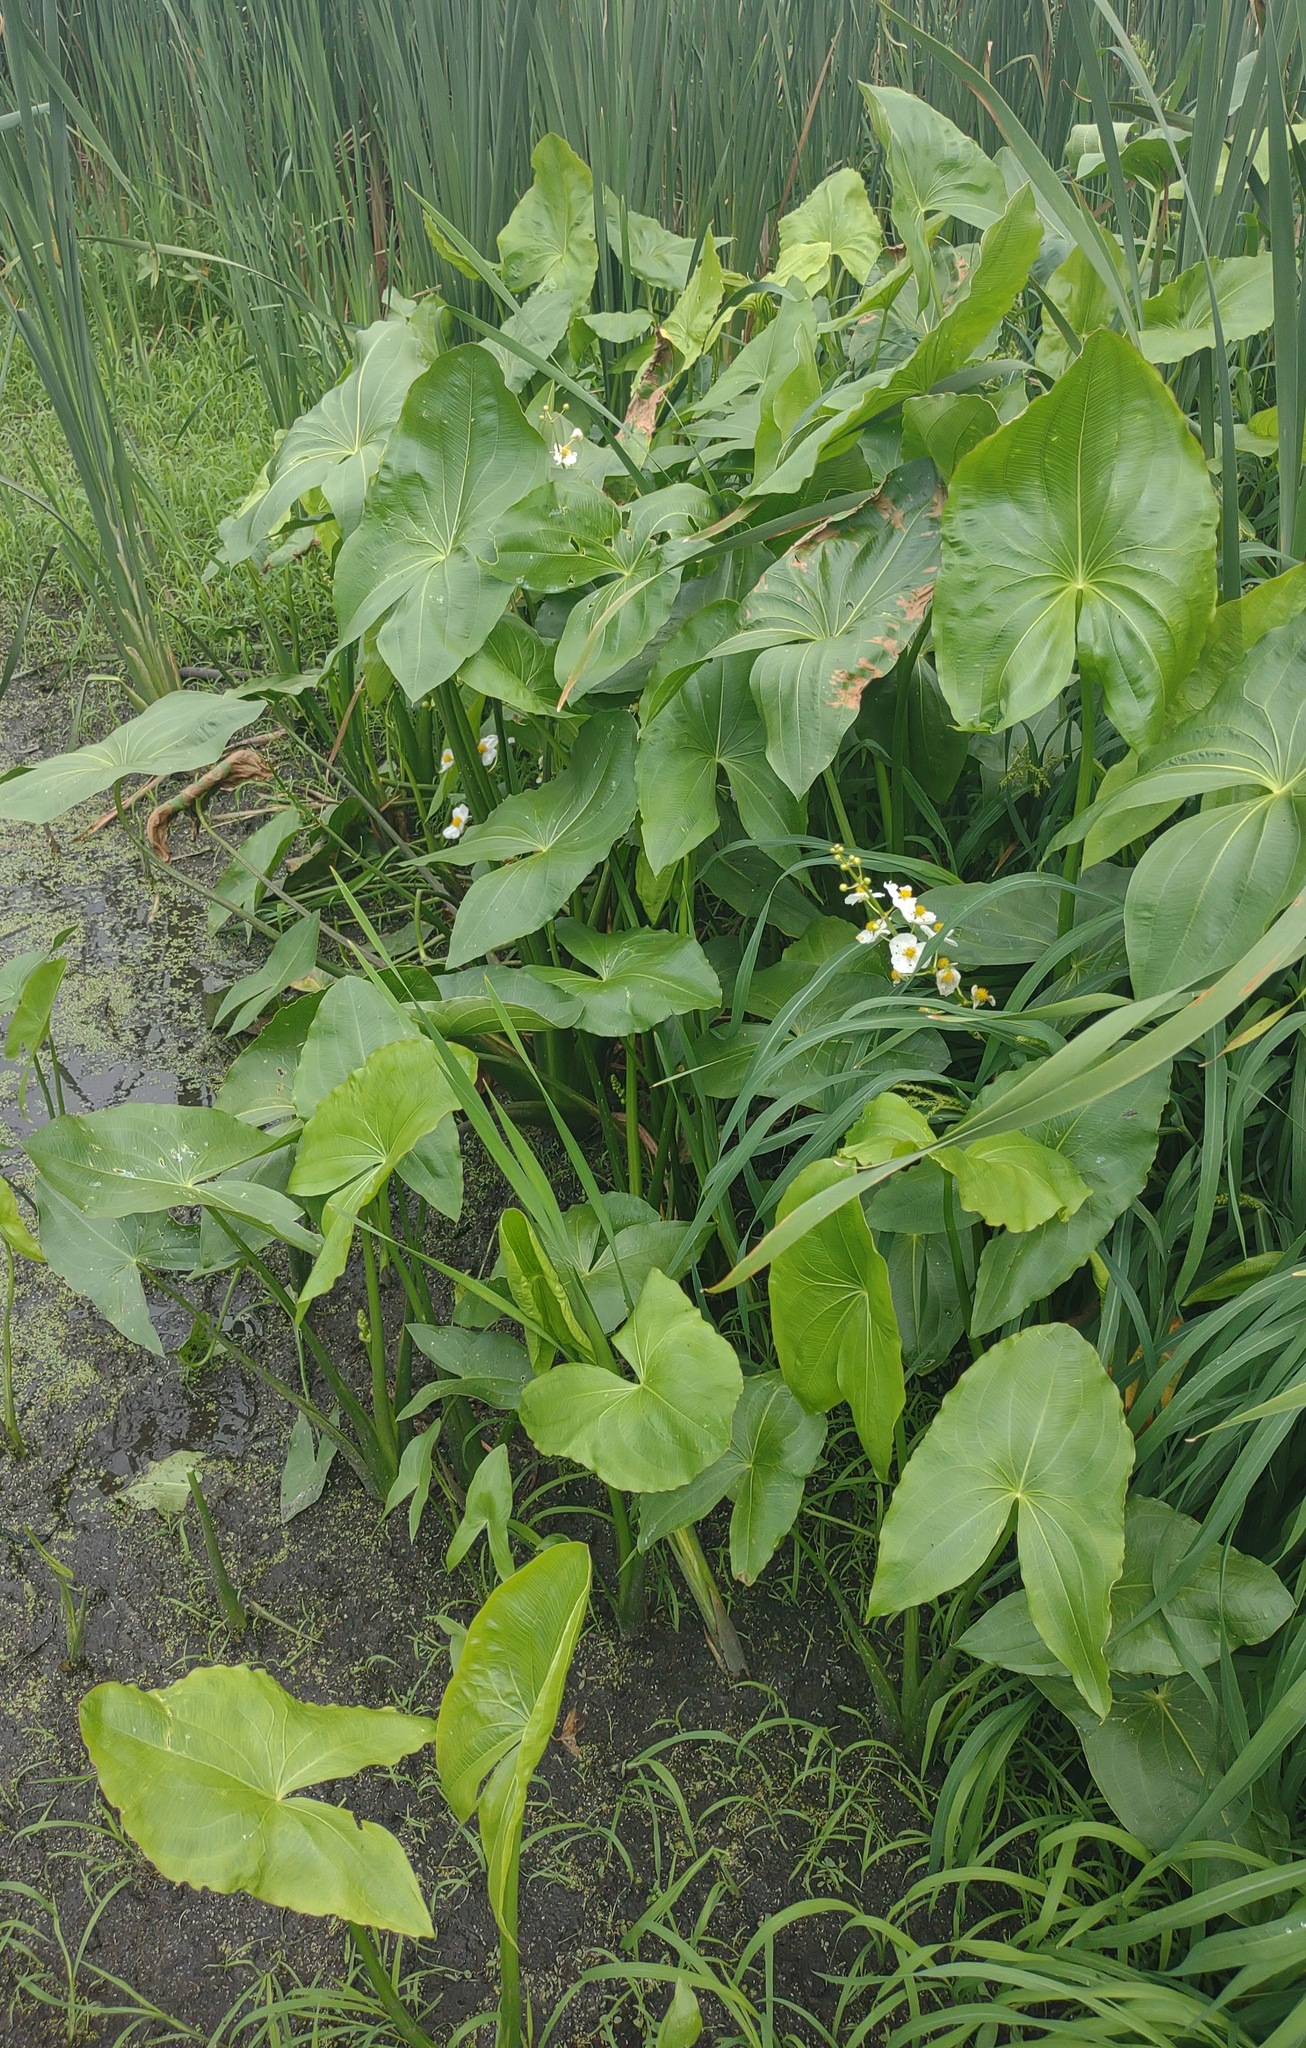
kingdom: Plantae
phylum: Tracheophyta
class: Liliopsida
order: Alismatales
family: Alismataceae
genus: Sagittaria
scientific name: Sagittaria latifolia
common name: Duck-potato
